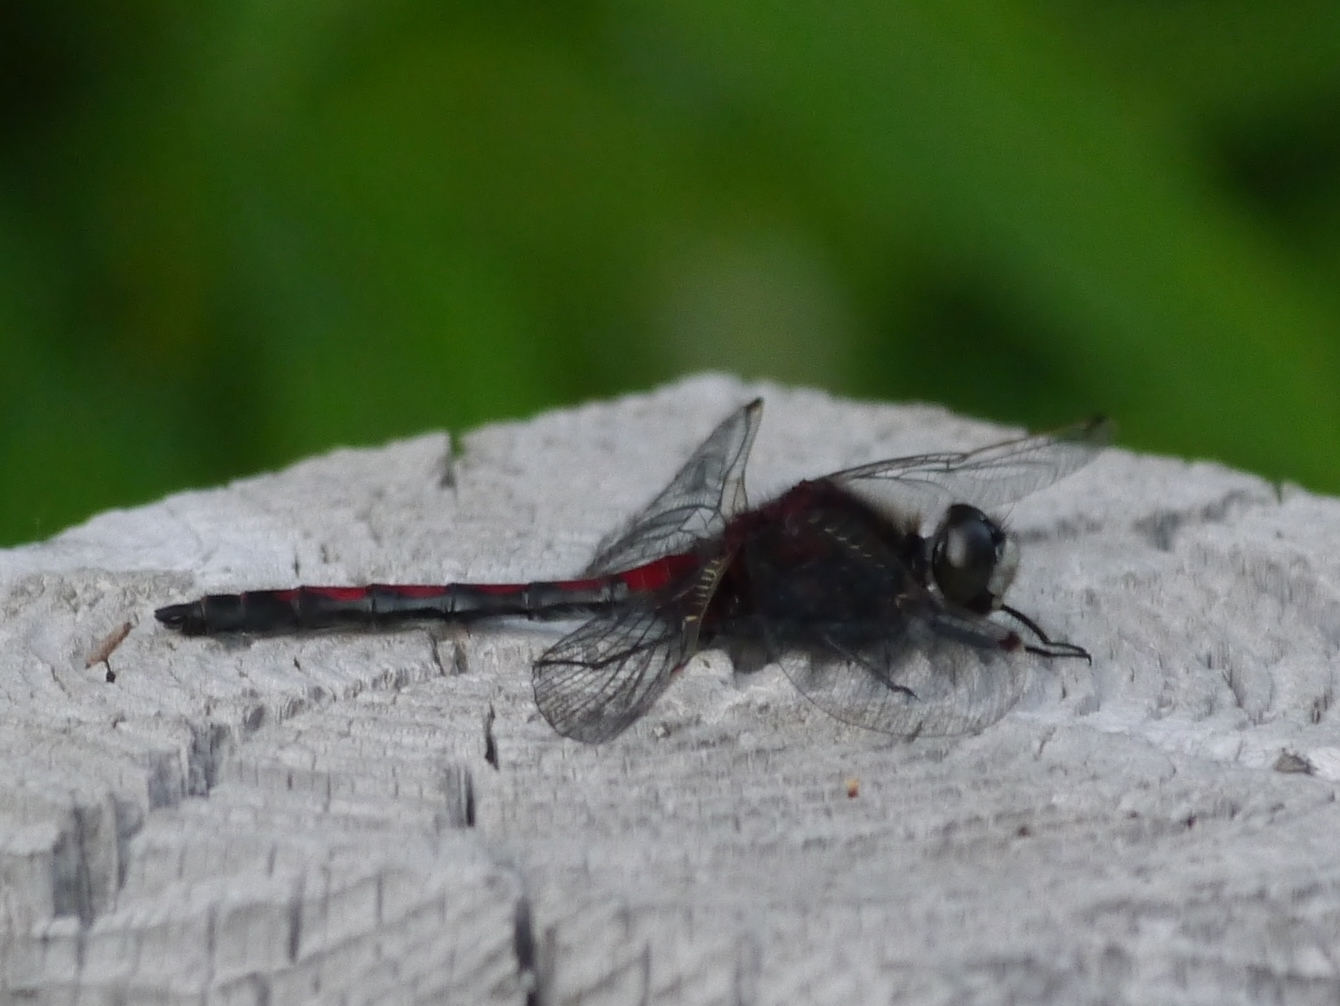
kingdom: Animalia
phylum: Arthropoda
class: Insecta
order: Odonata
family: Libellulidae
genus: Leucorrhinia
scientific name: Leucorrhinia borealis
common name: Boreal whiteface
